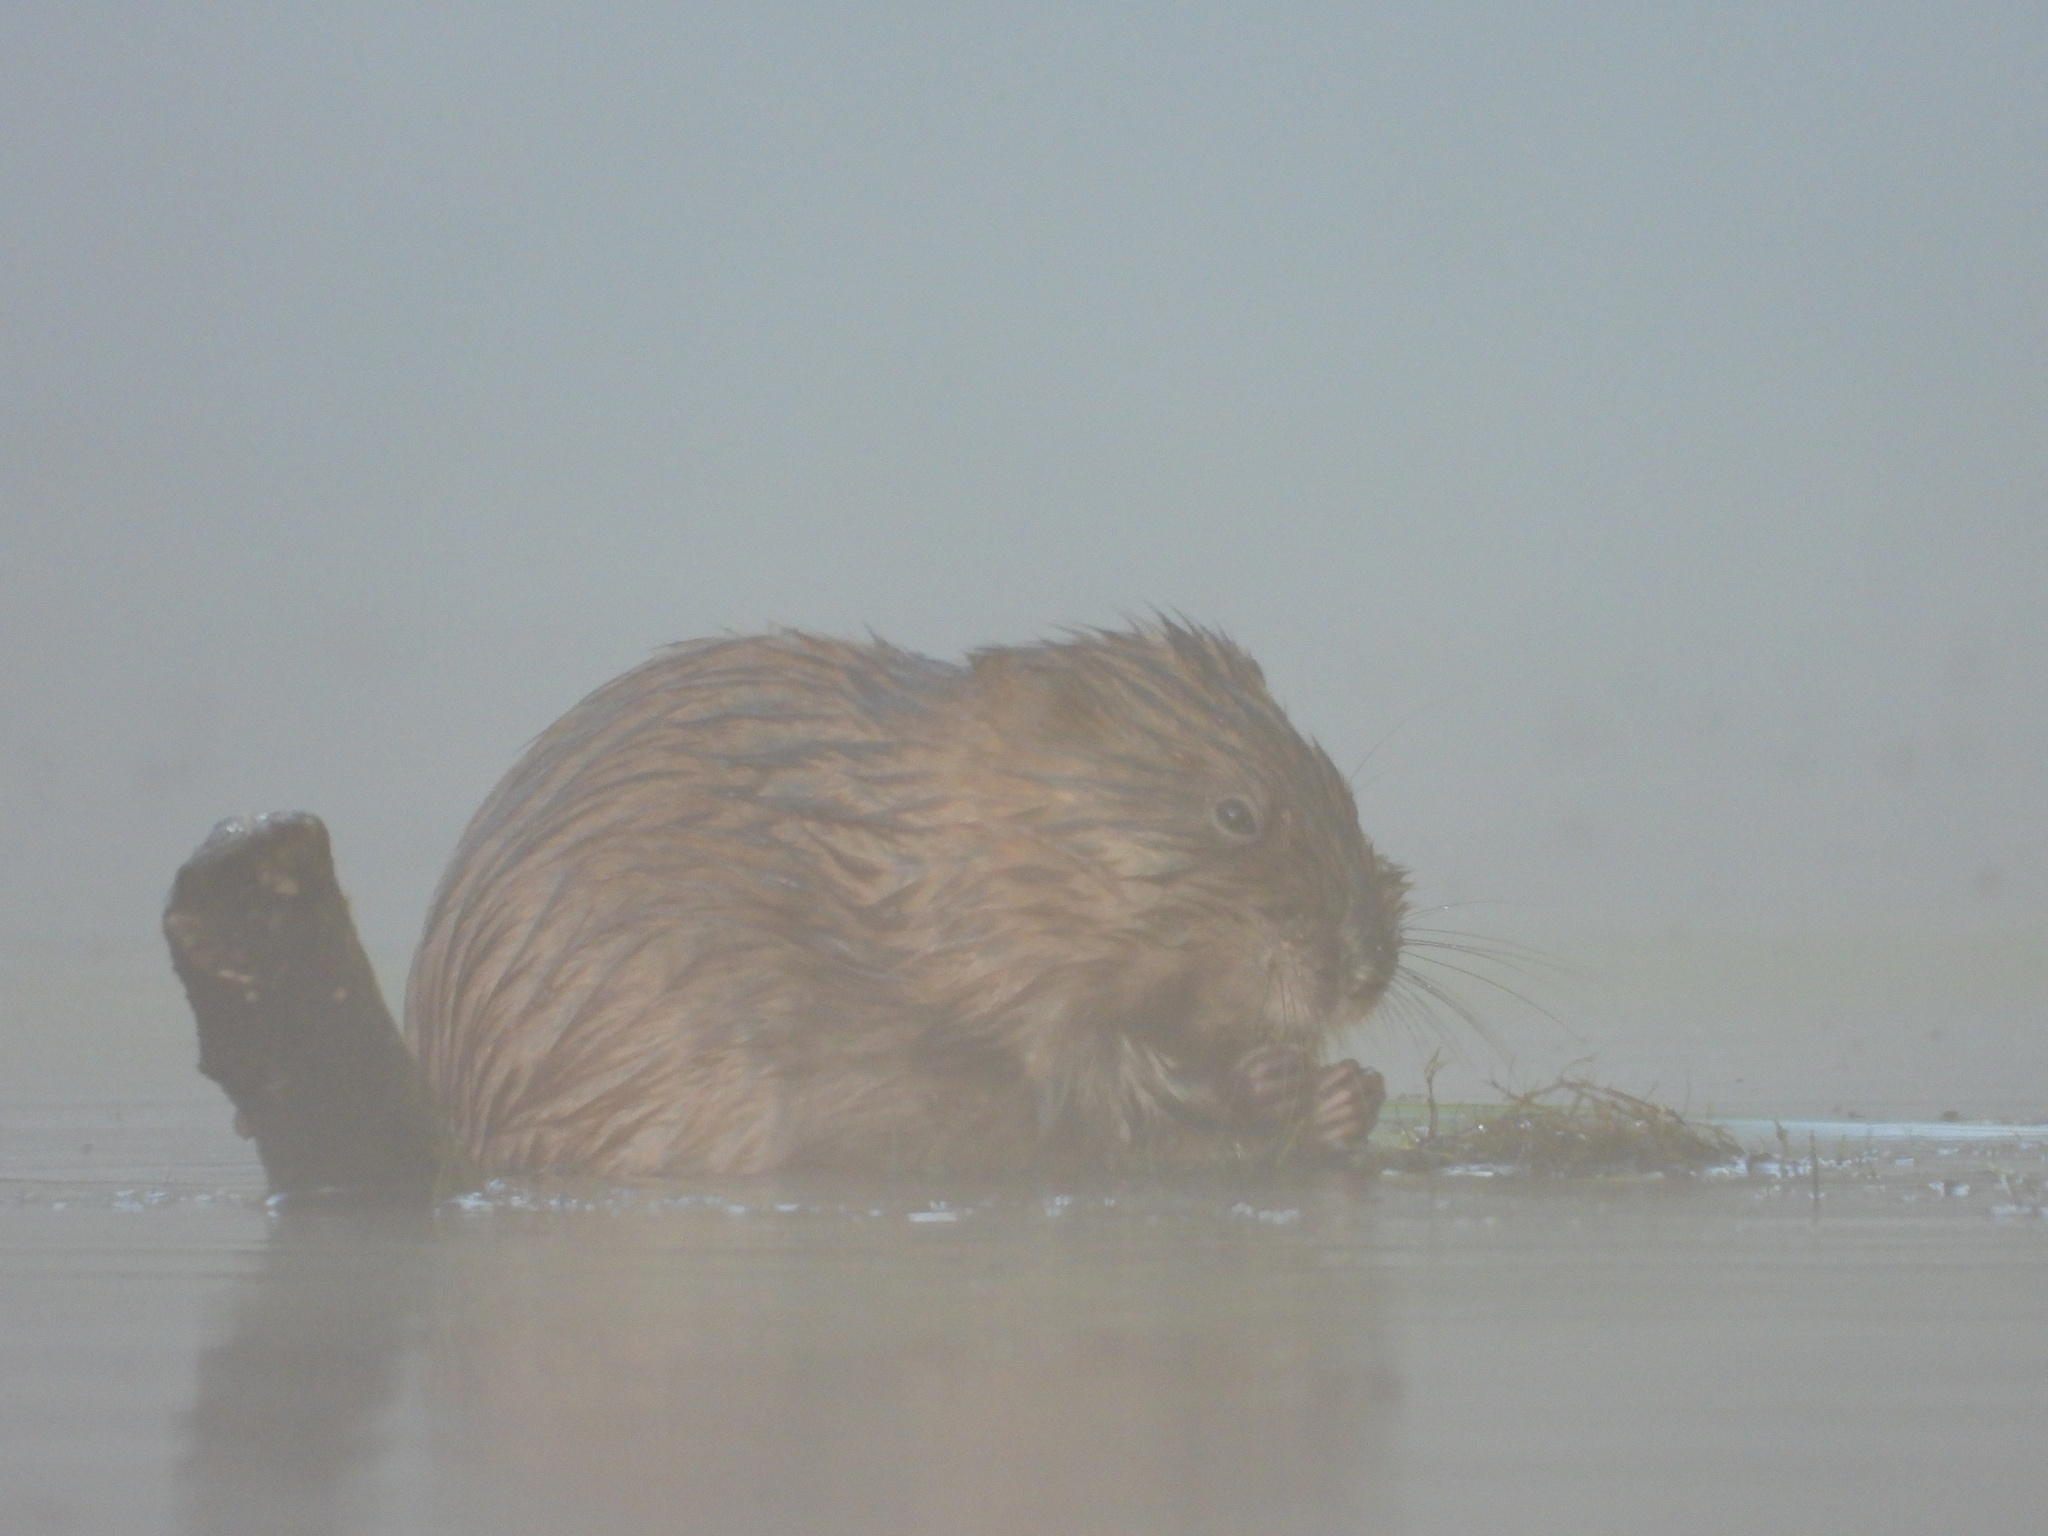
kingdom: Animalia
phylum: Chordata
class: Mammalia
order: Rodentia
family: Cricetidae
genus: Ondatra
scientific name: Ondatra zibethicus
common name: Muskrat
